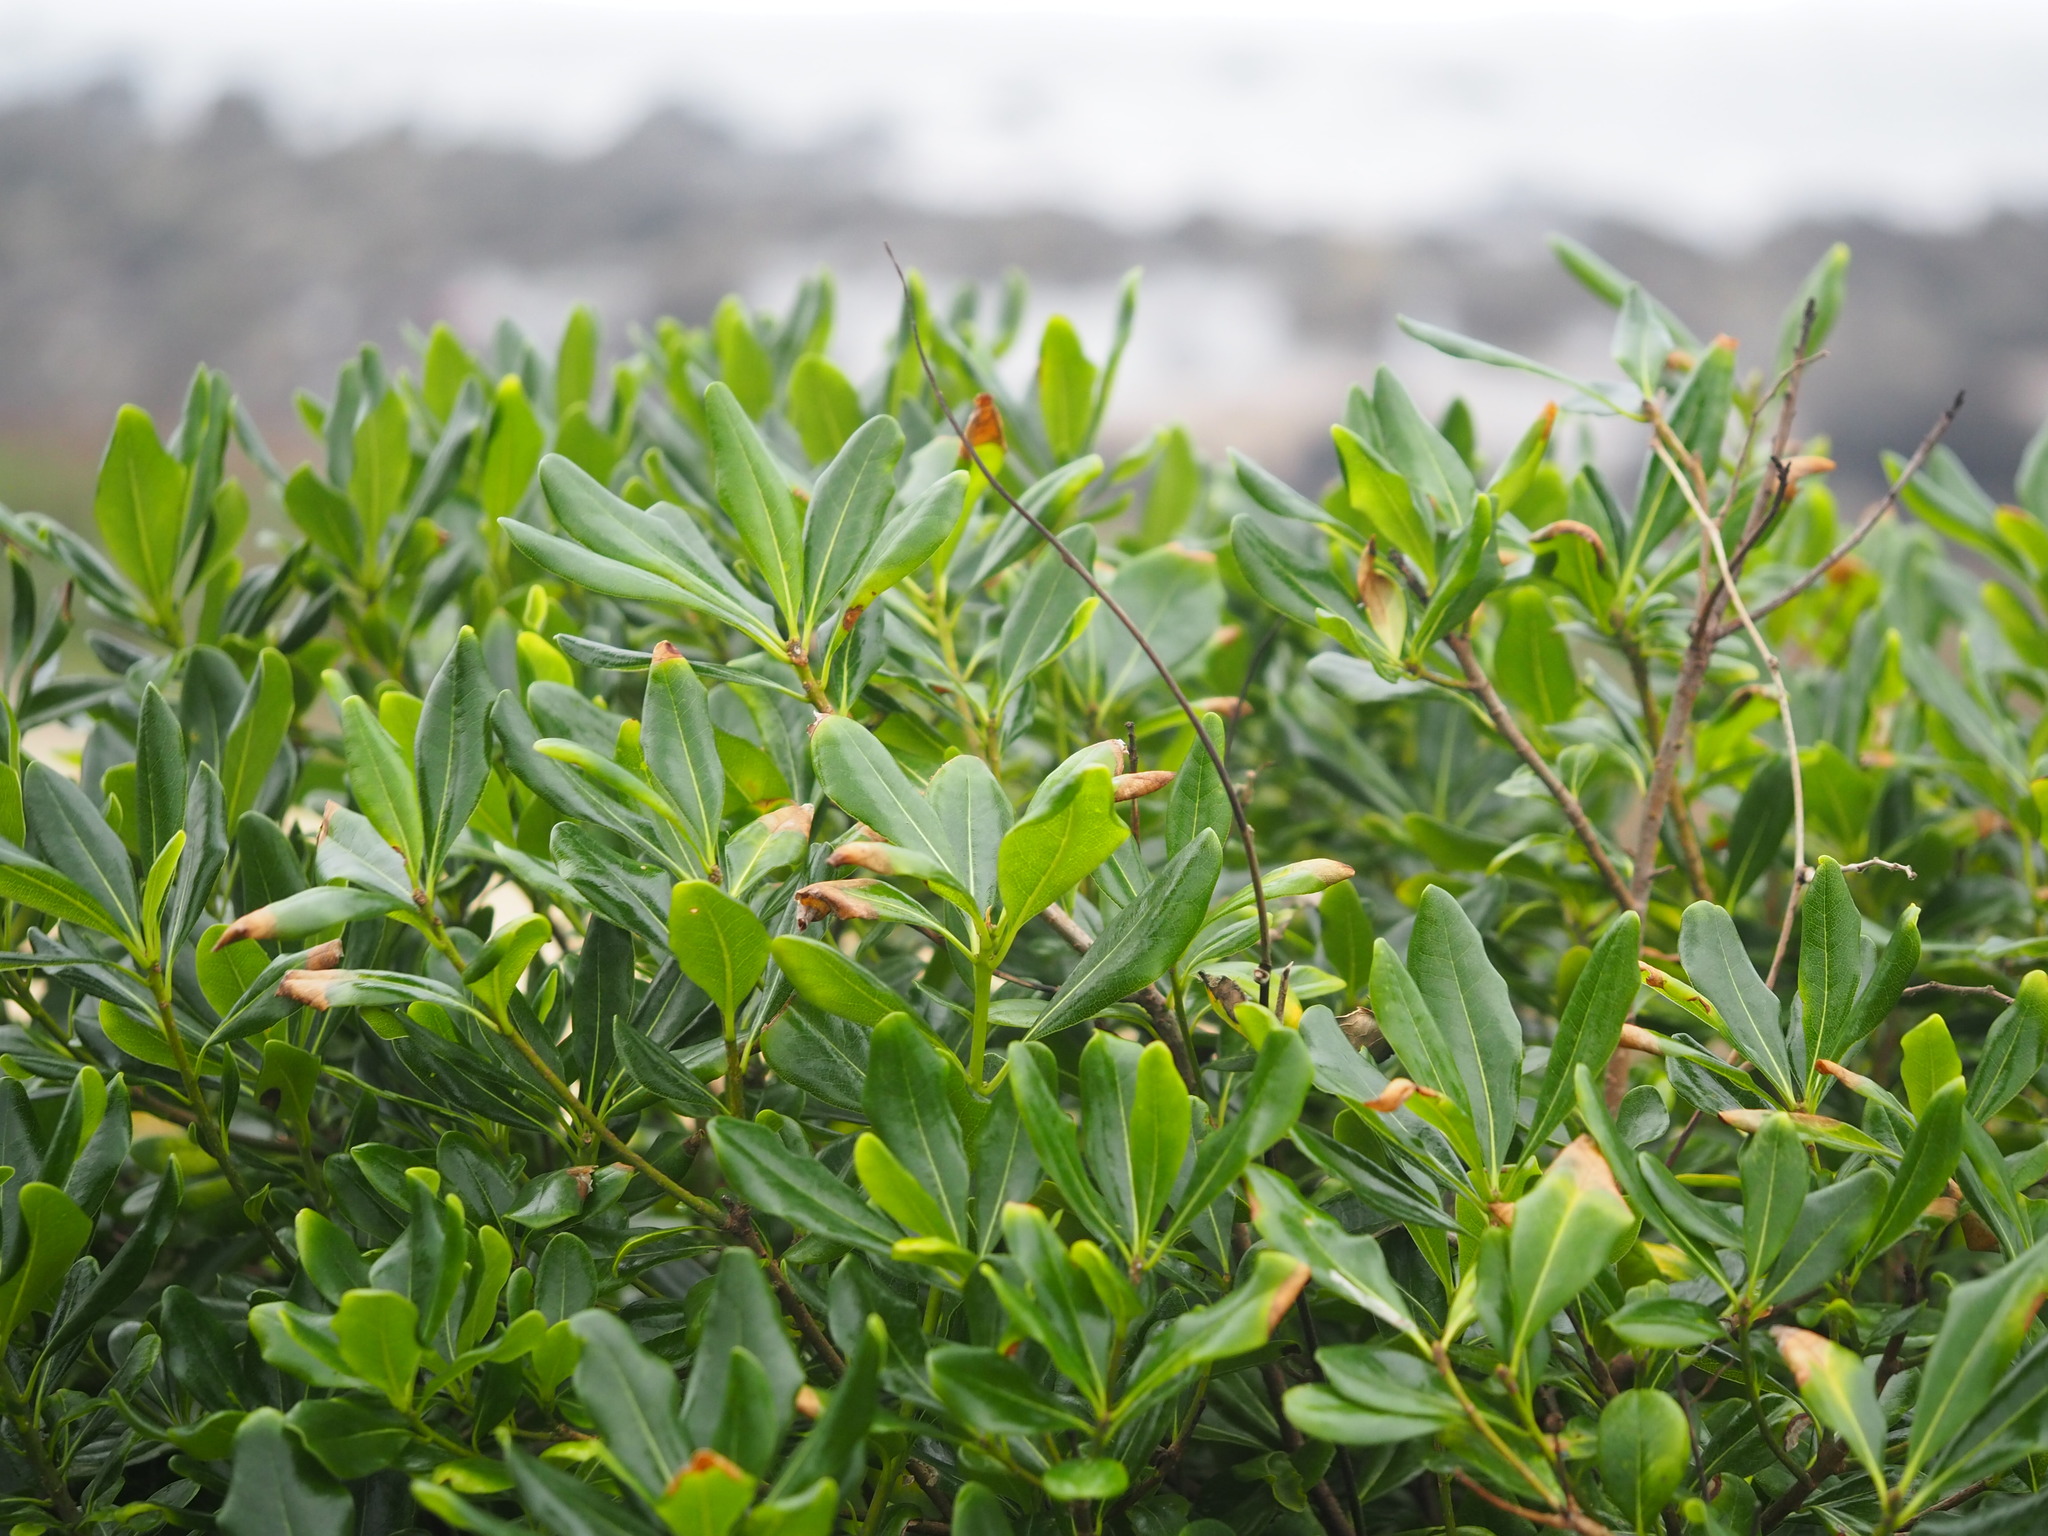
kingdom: Plantae
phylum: Tracheophyta
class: Magnoliopsida
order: Apiales
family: Pittosporaceae
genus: Pittosporum
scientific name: Pittosporum tobira
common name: Japanese cheesewood
